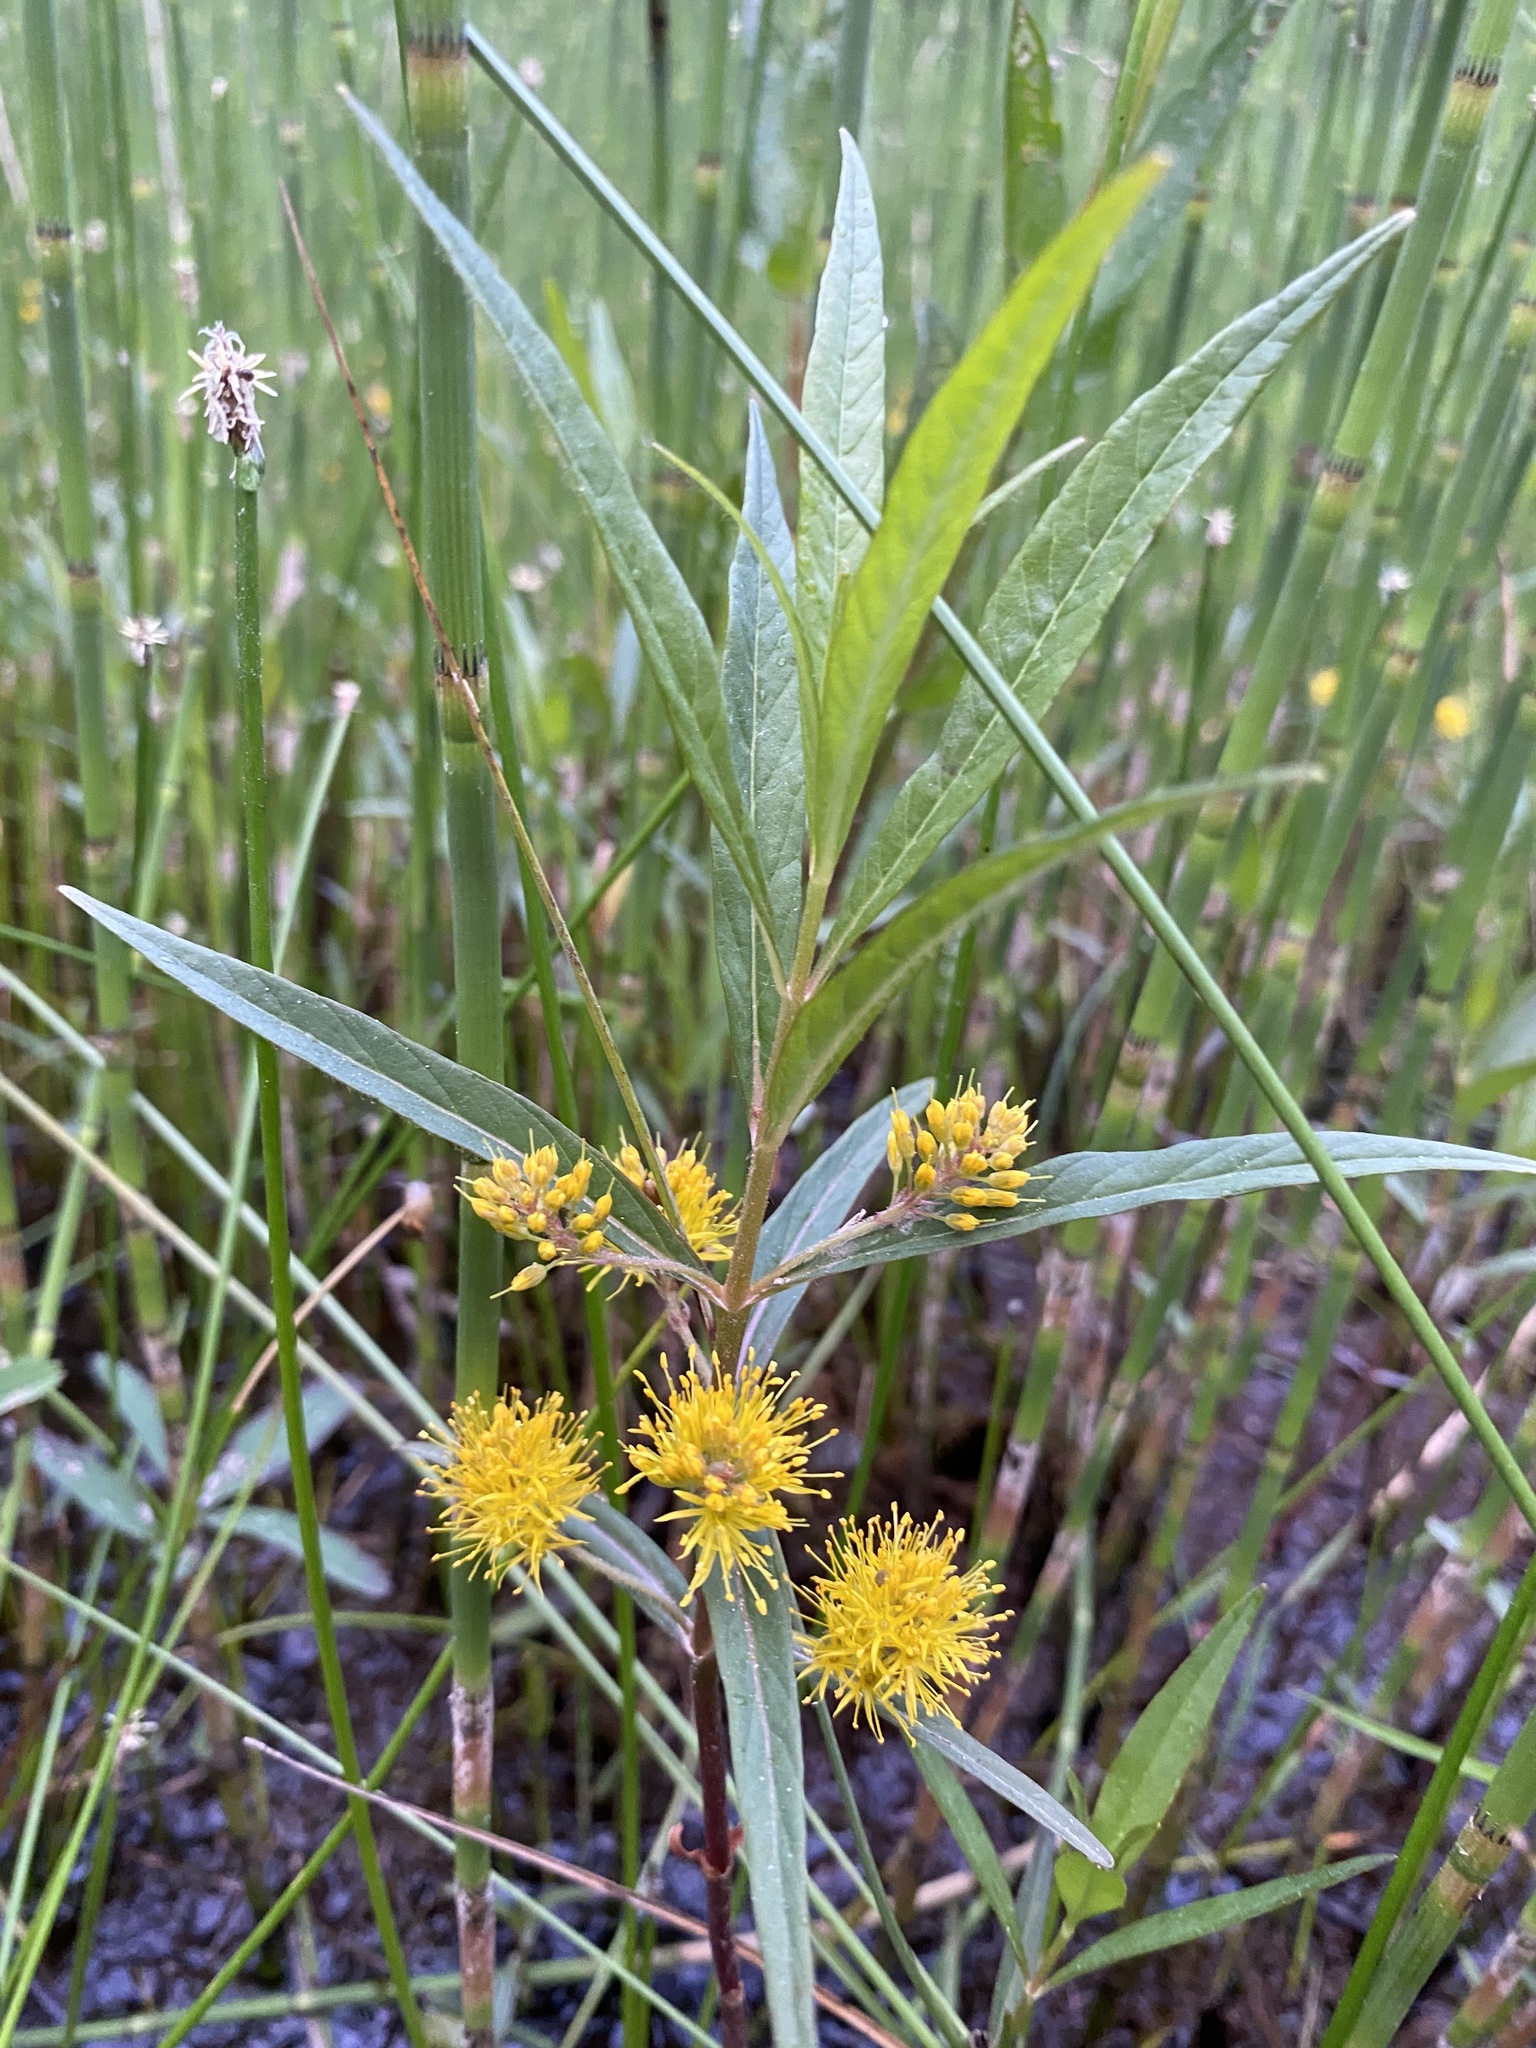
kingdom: Plantae
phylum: Tracheophyta
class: Magnoliopsida
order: Ericales
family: Primulaceae
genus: Lysimachia
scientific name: Lysimachia thyrsiflora
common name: Tufted loosestrife
